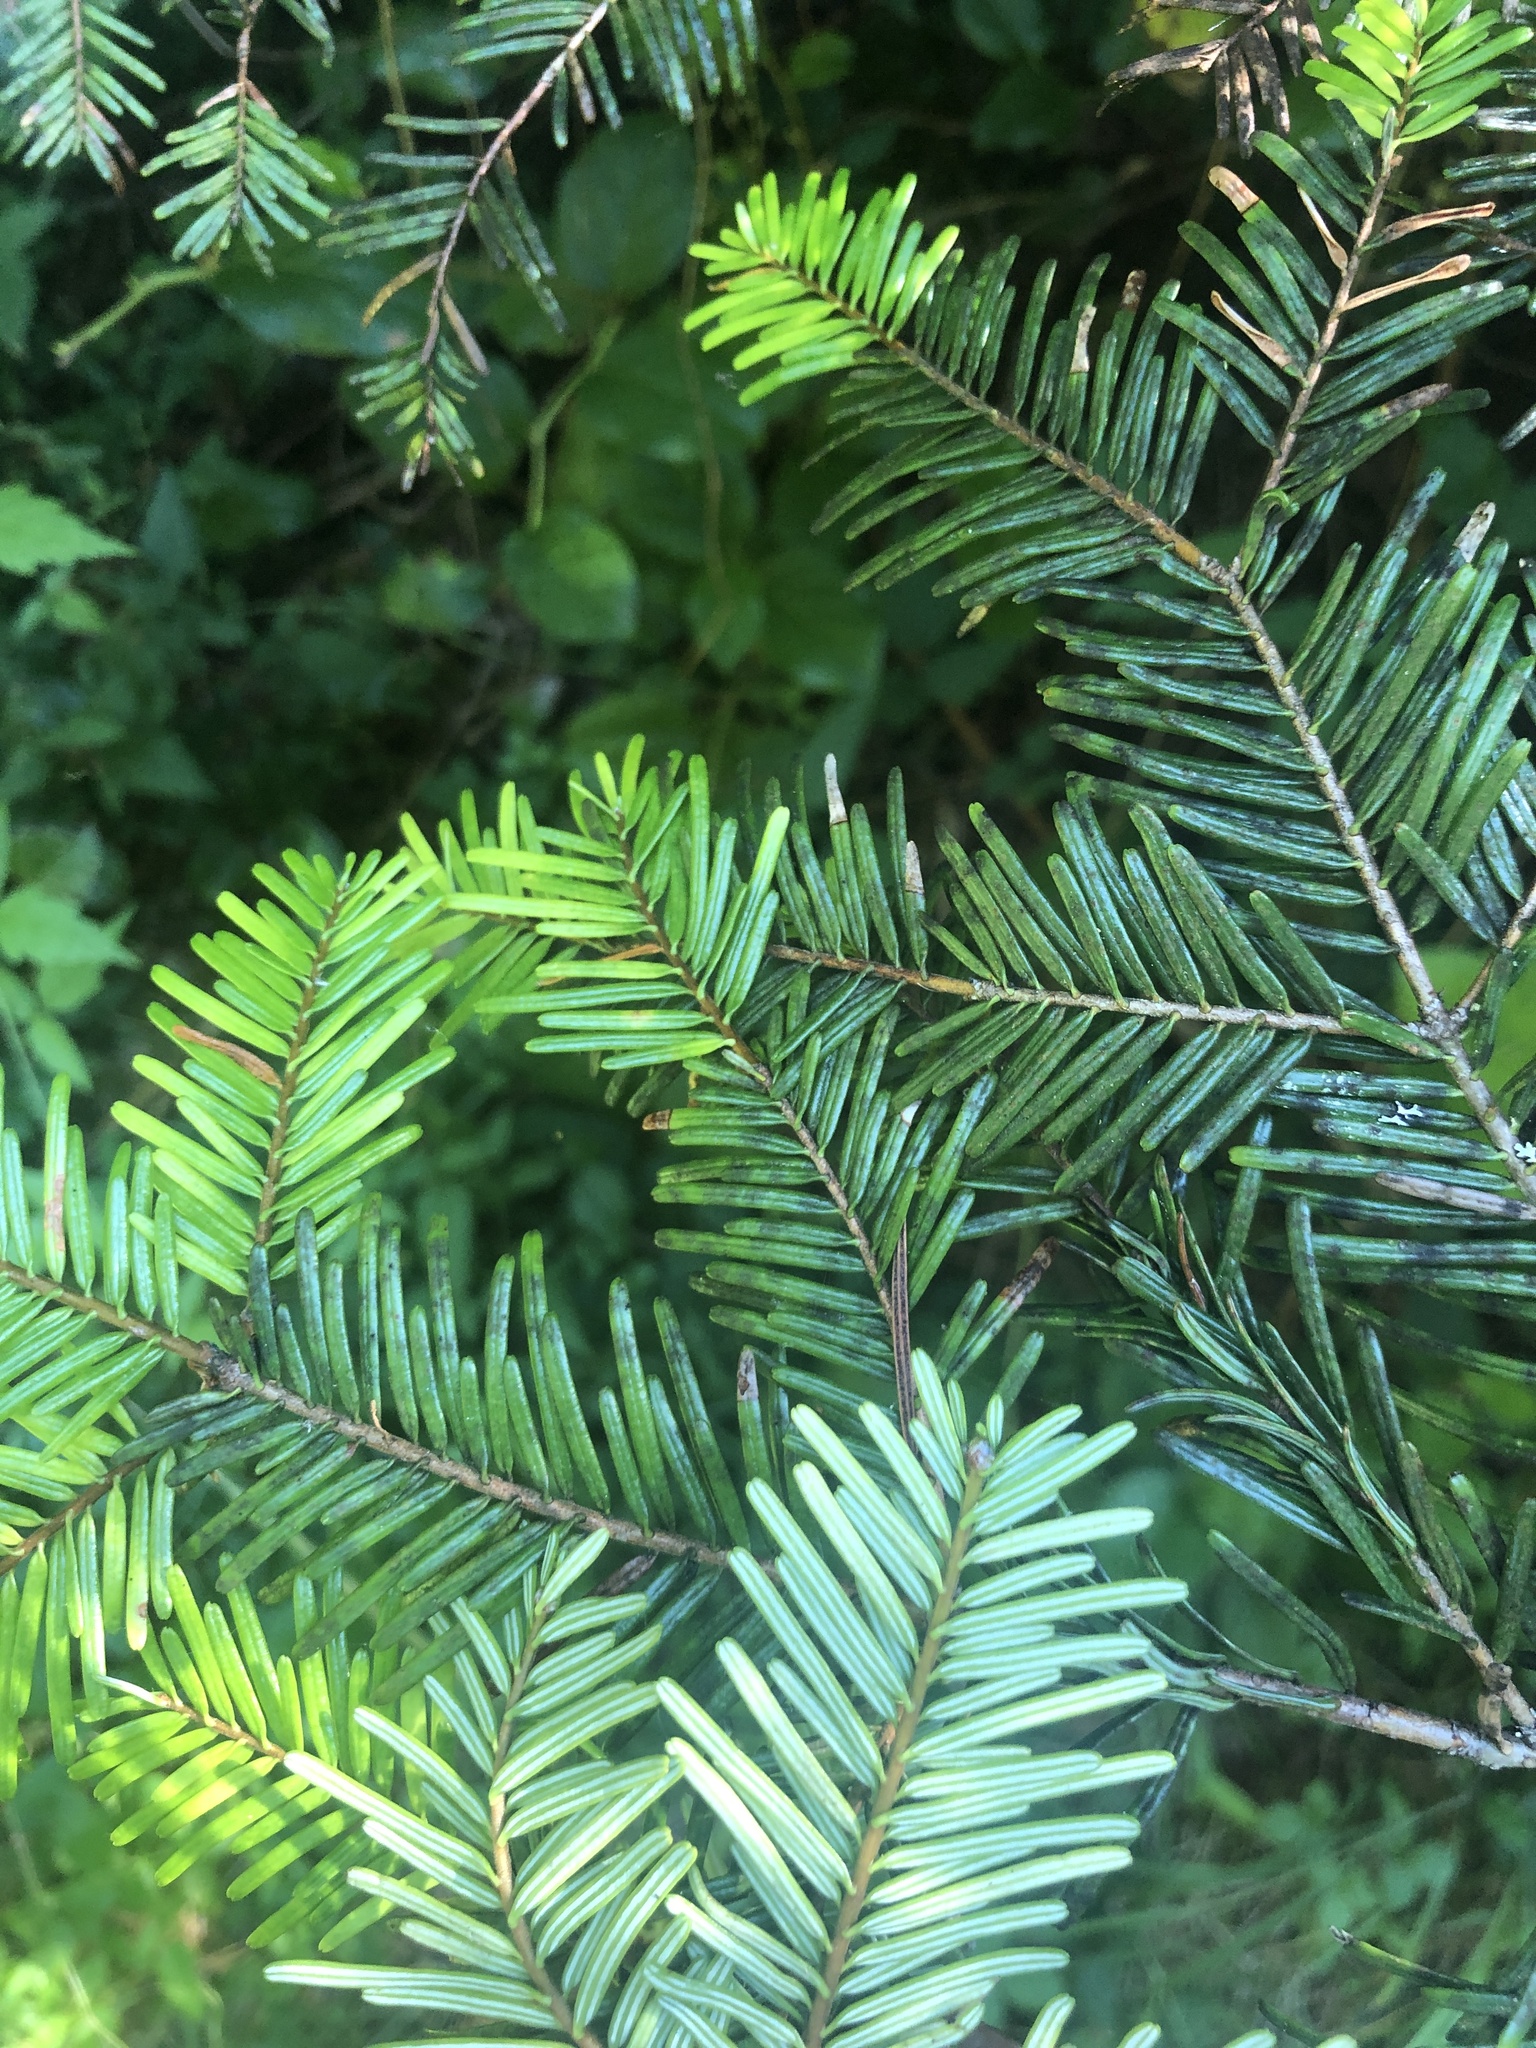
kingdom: Plantae
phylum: Tracheophyta
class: Pinopsida
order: Pinales
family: Pinaceae
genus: Abies
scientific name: Abies grandis
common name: Giant fir
